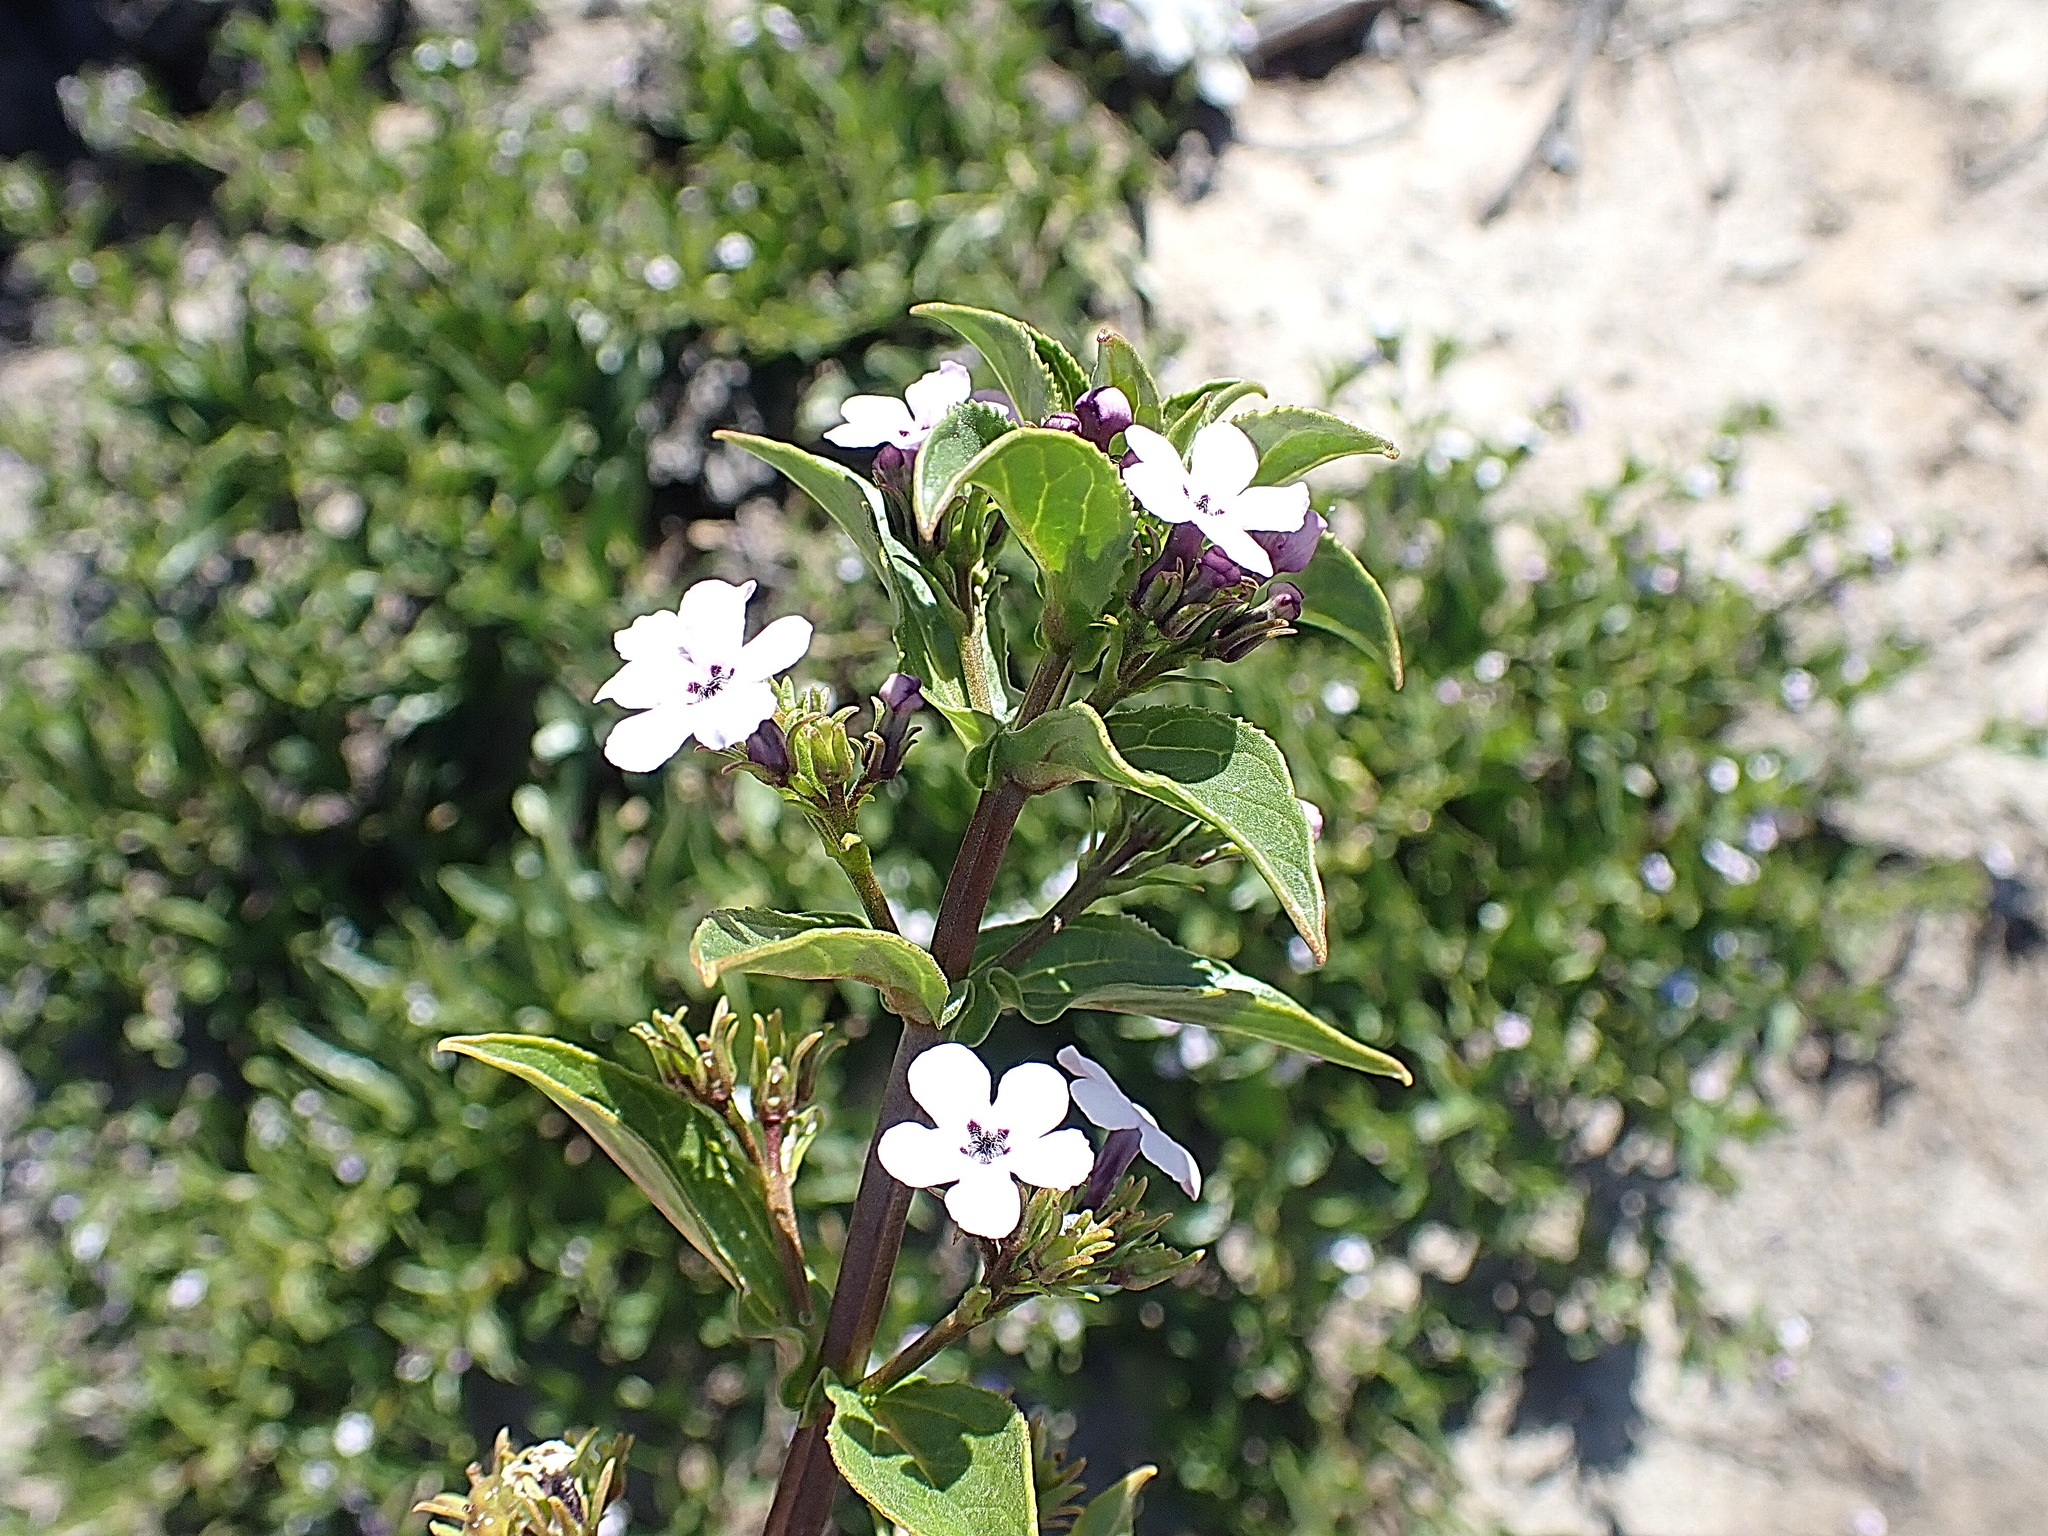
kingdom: Plantae
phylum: Tracheophyta
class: Magnoliopsida
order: Lamiales
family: Scrophulariaceae
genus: Teedia
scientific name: Teedia lucida
